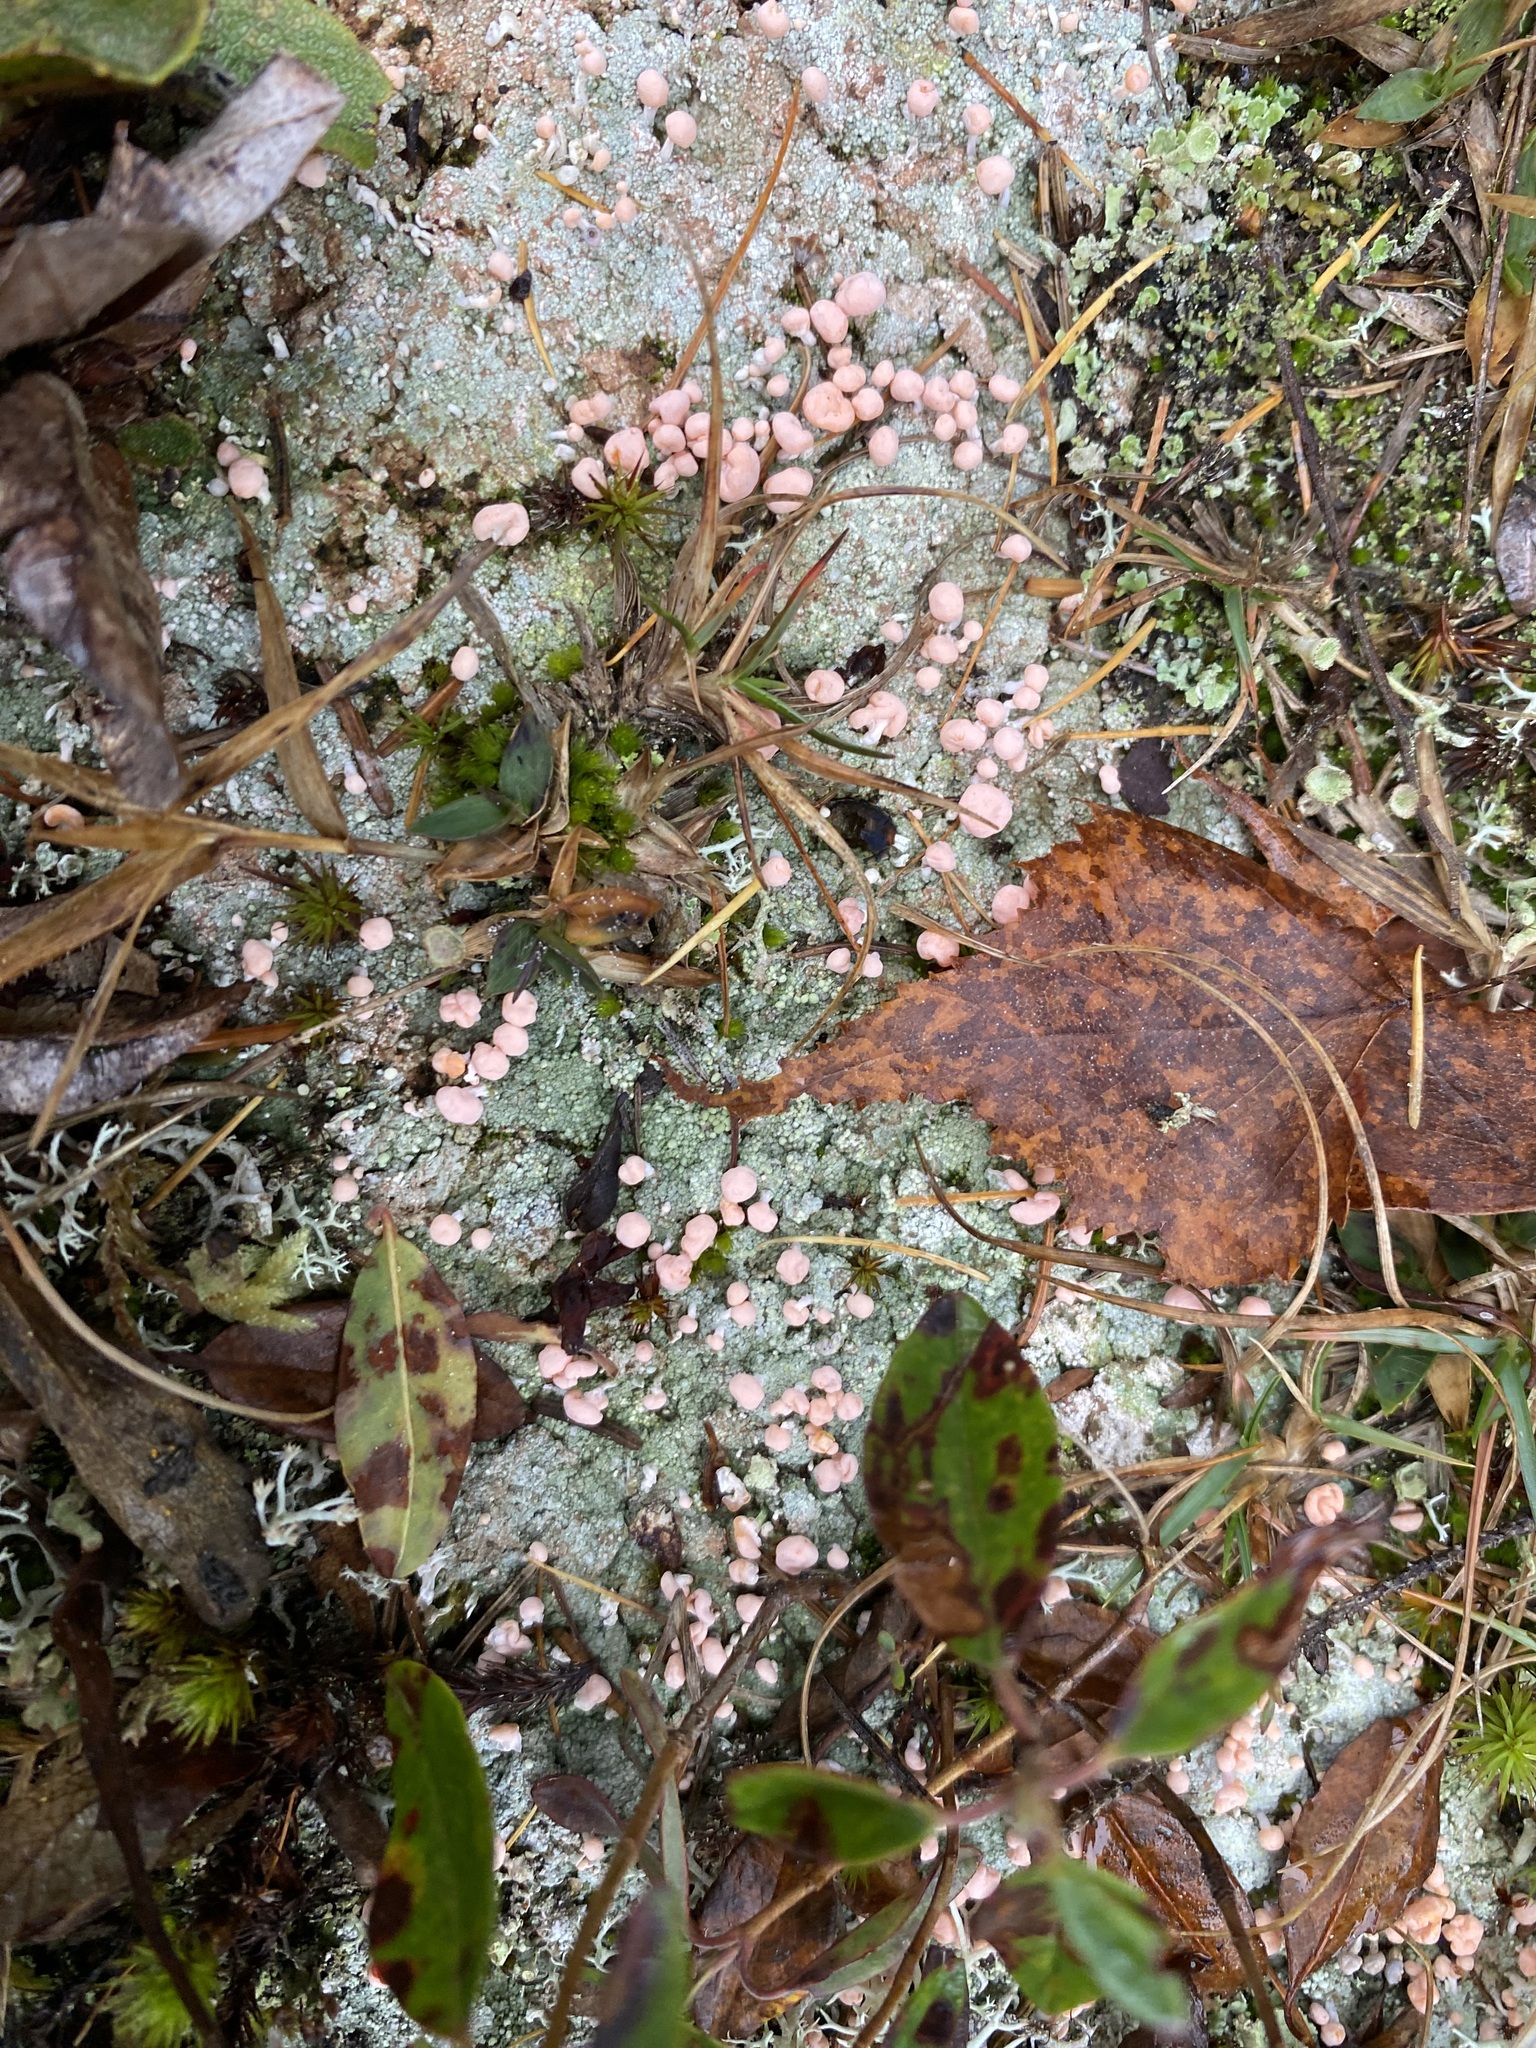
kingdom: Fungi
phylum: Ascomycota
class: Lecanoromycetes
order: Pertusariales
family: Icmadophilaceae
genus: Dibaeis
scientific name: Dibaeis baeomyces
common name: Pink earth lichen
